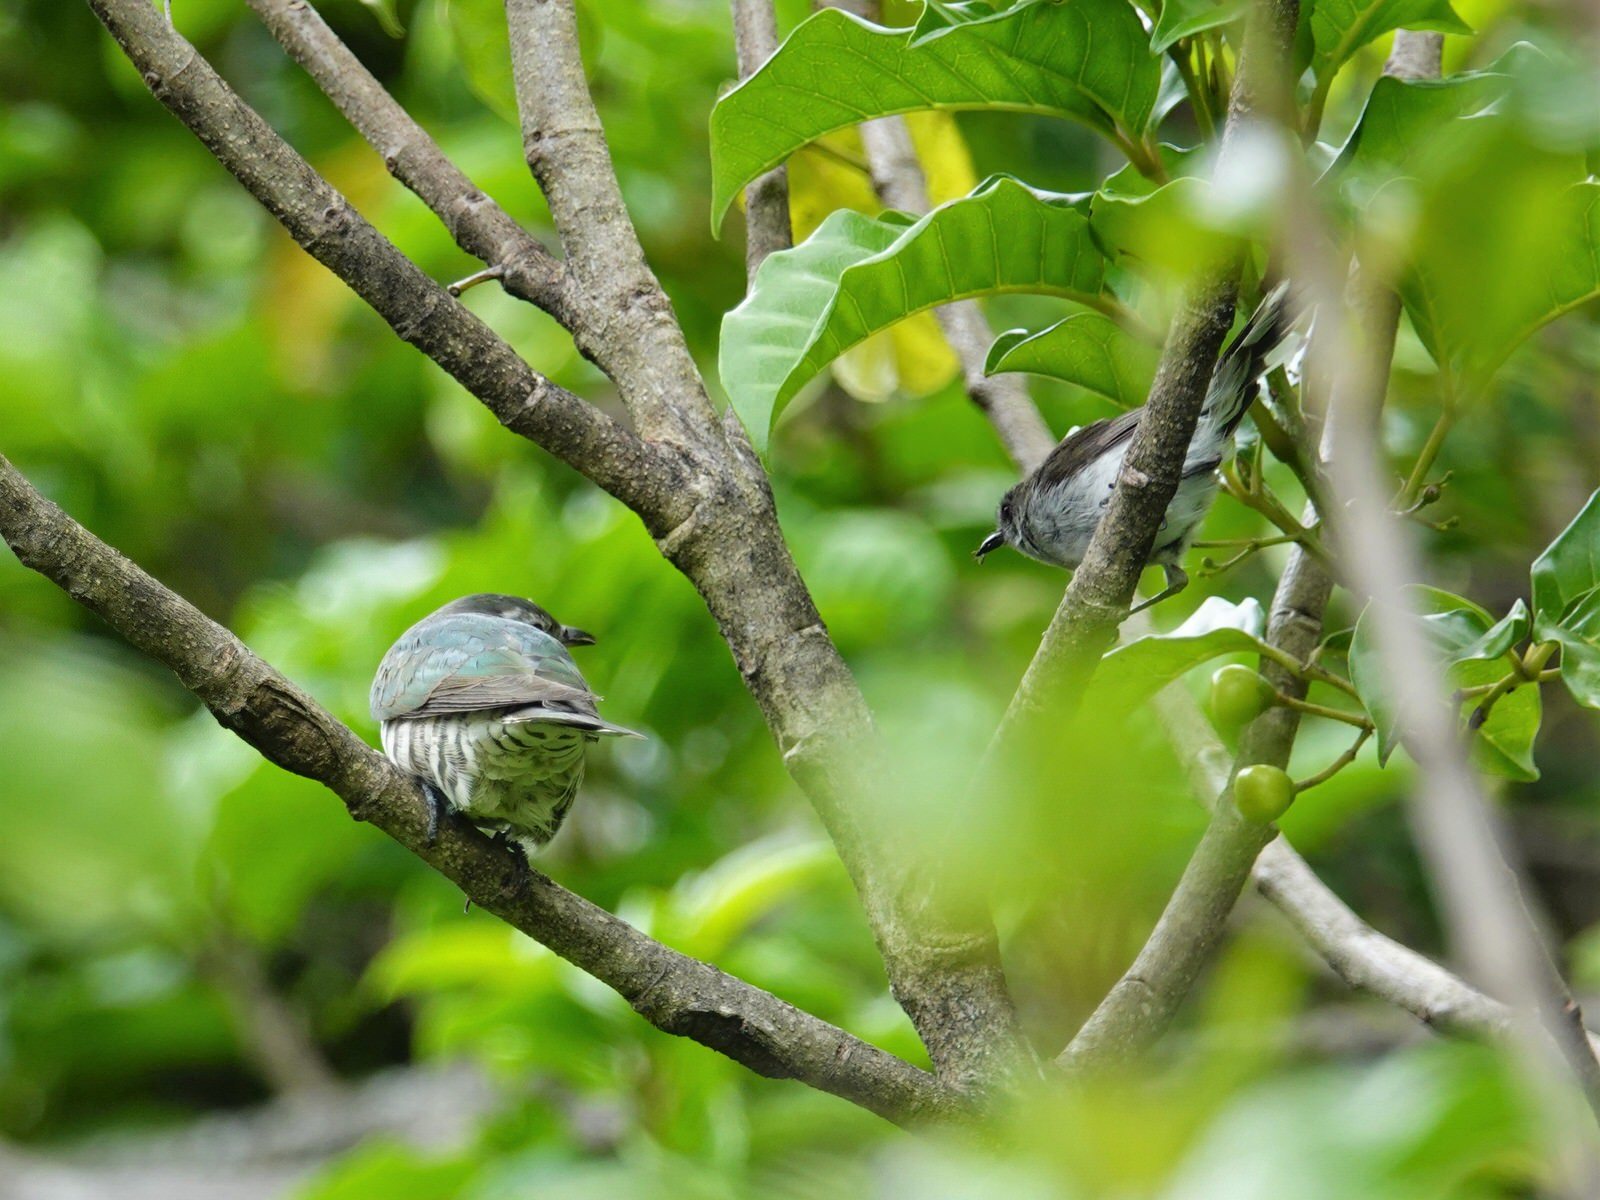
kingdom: Animalia
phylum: Chordata
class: Aves
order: Cuculiformes
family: Cuculidae
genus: Chrysococcyx
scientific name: Chrysococcyx lucidus
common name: Shining bronze cuckoo
